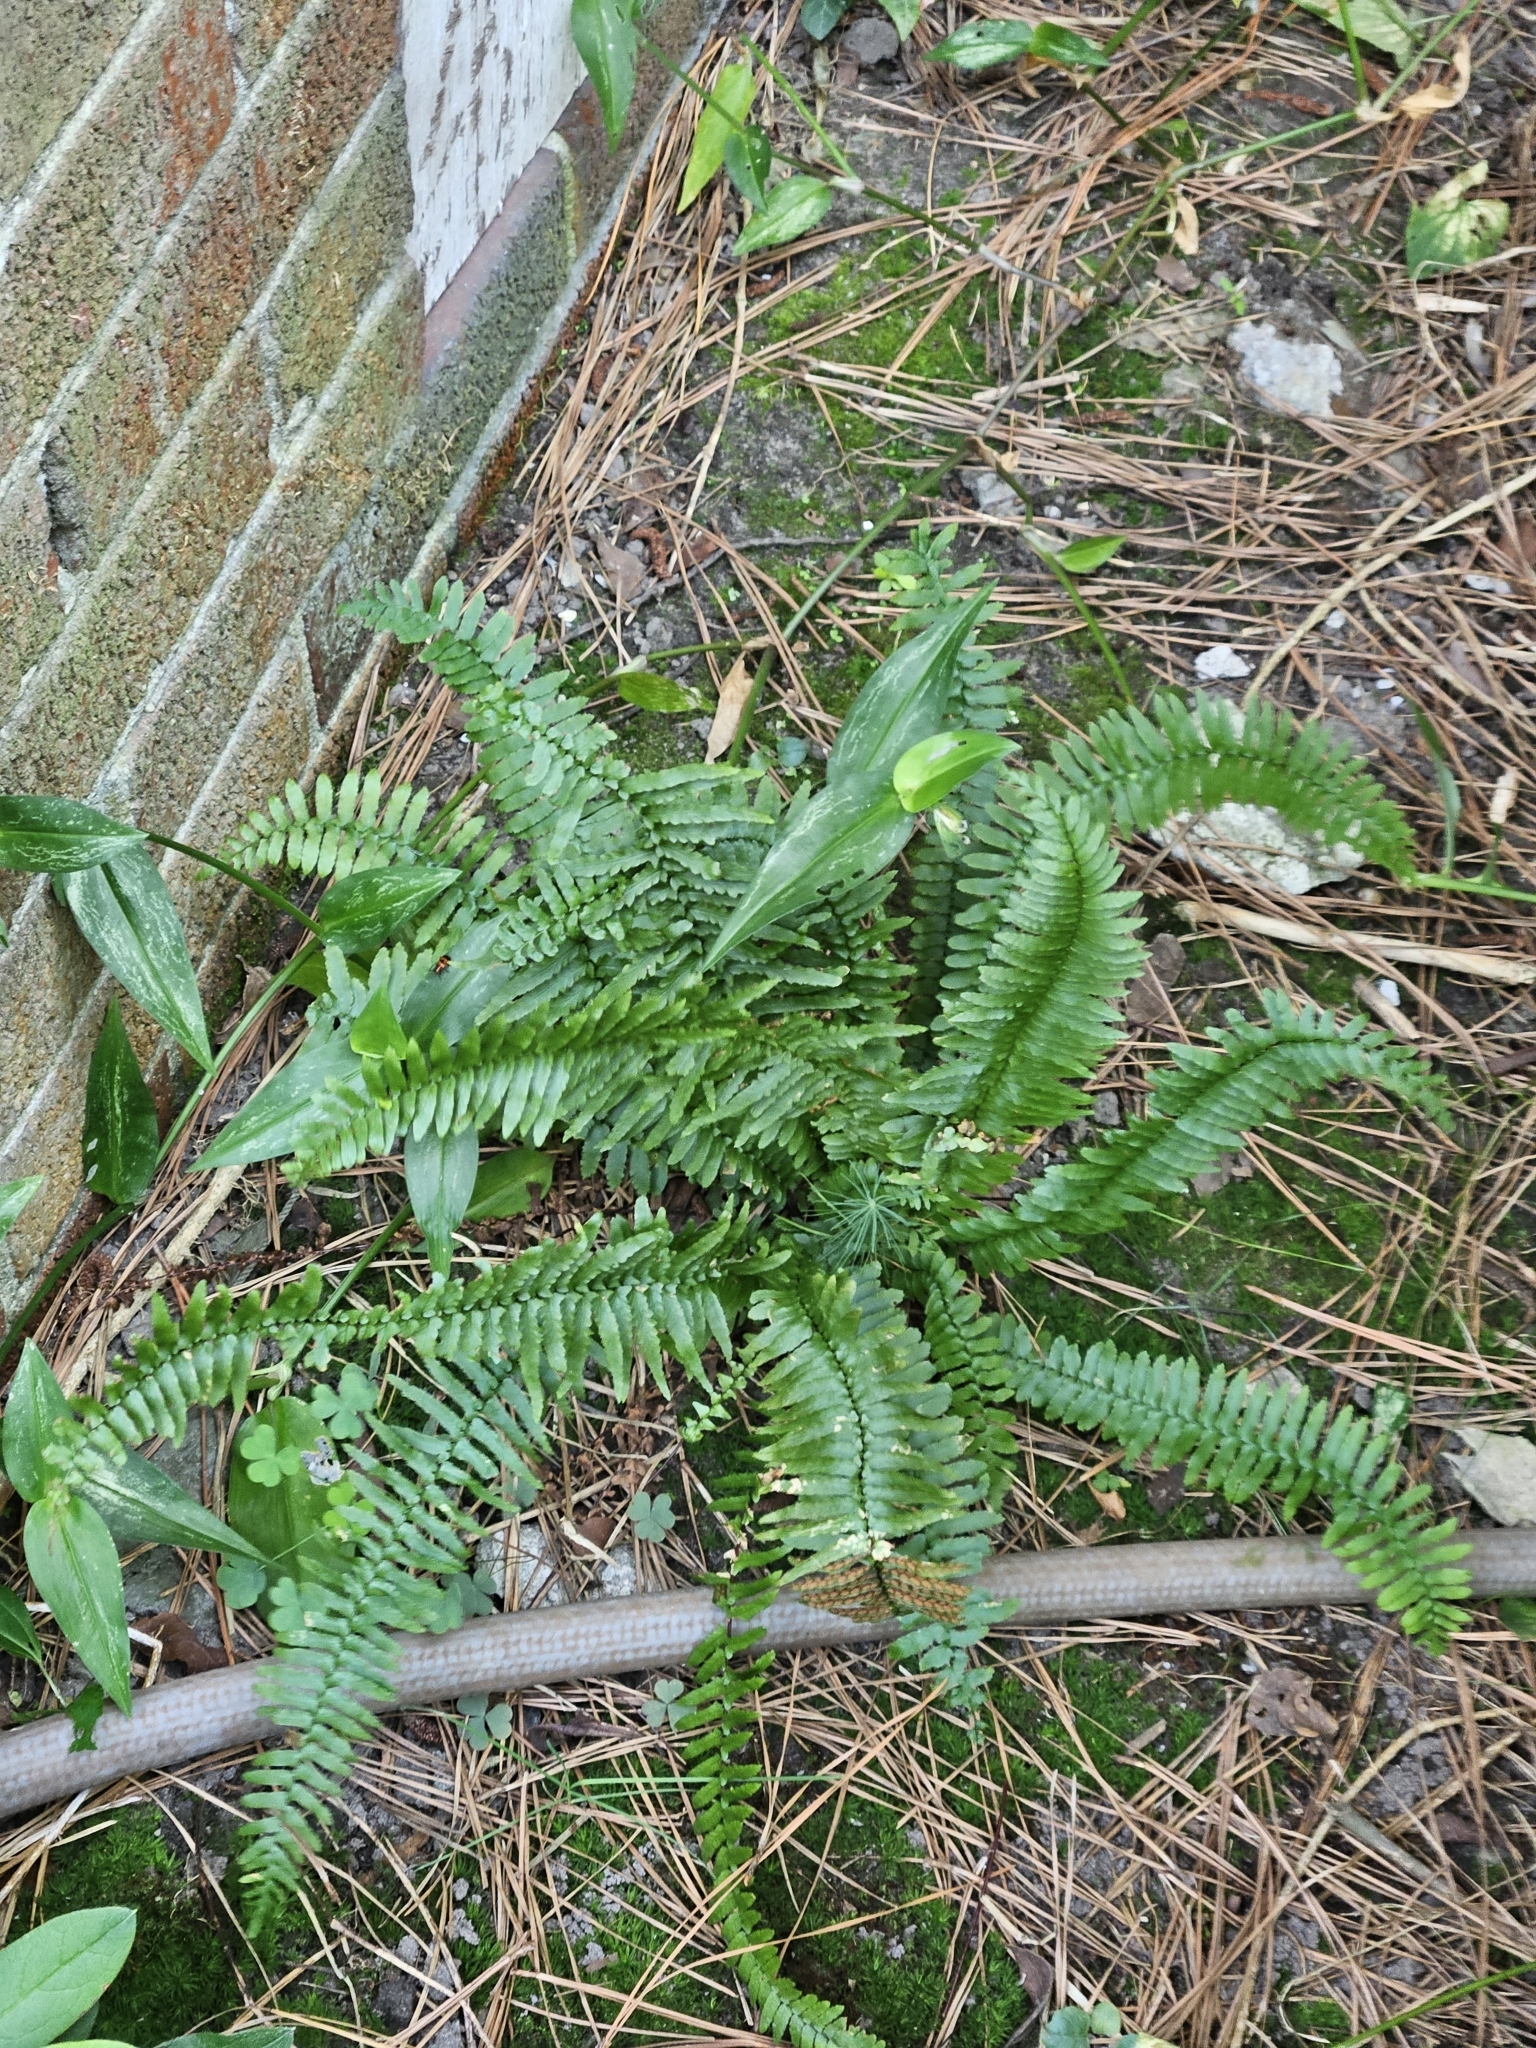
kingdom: Plantae
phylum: Tracheophyta
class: Polypodiopsida
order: Polypodiales
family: Aspleniaceae
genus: Asplenium
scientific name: Asplenium platyneuron
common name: Ebony spleenwort
